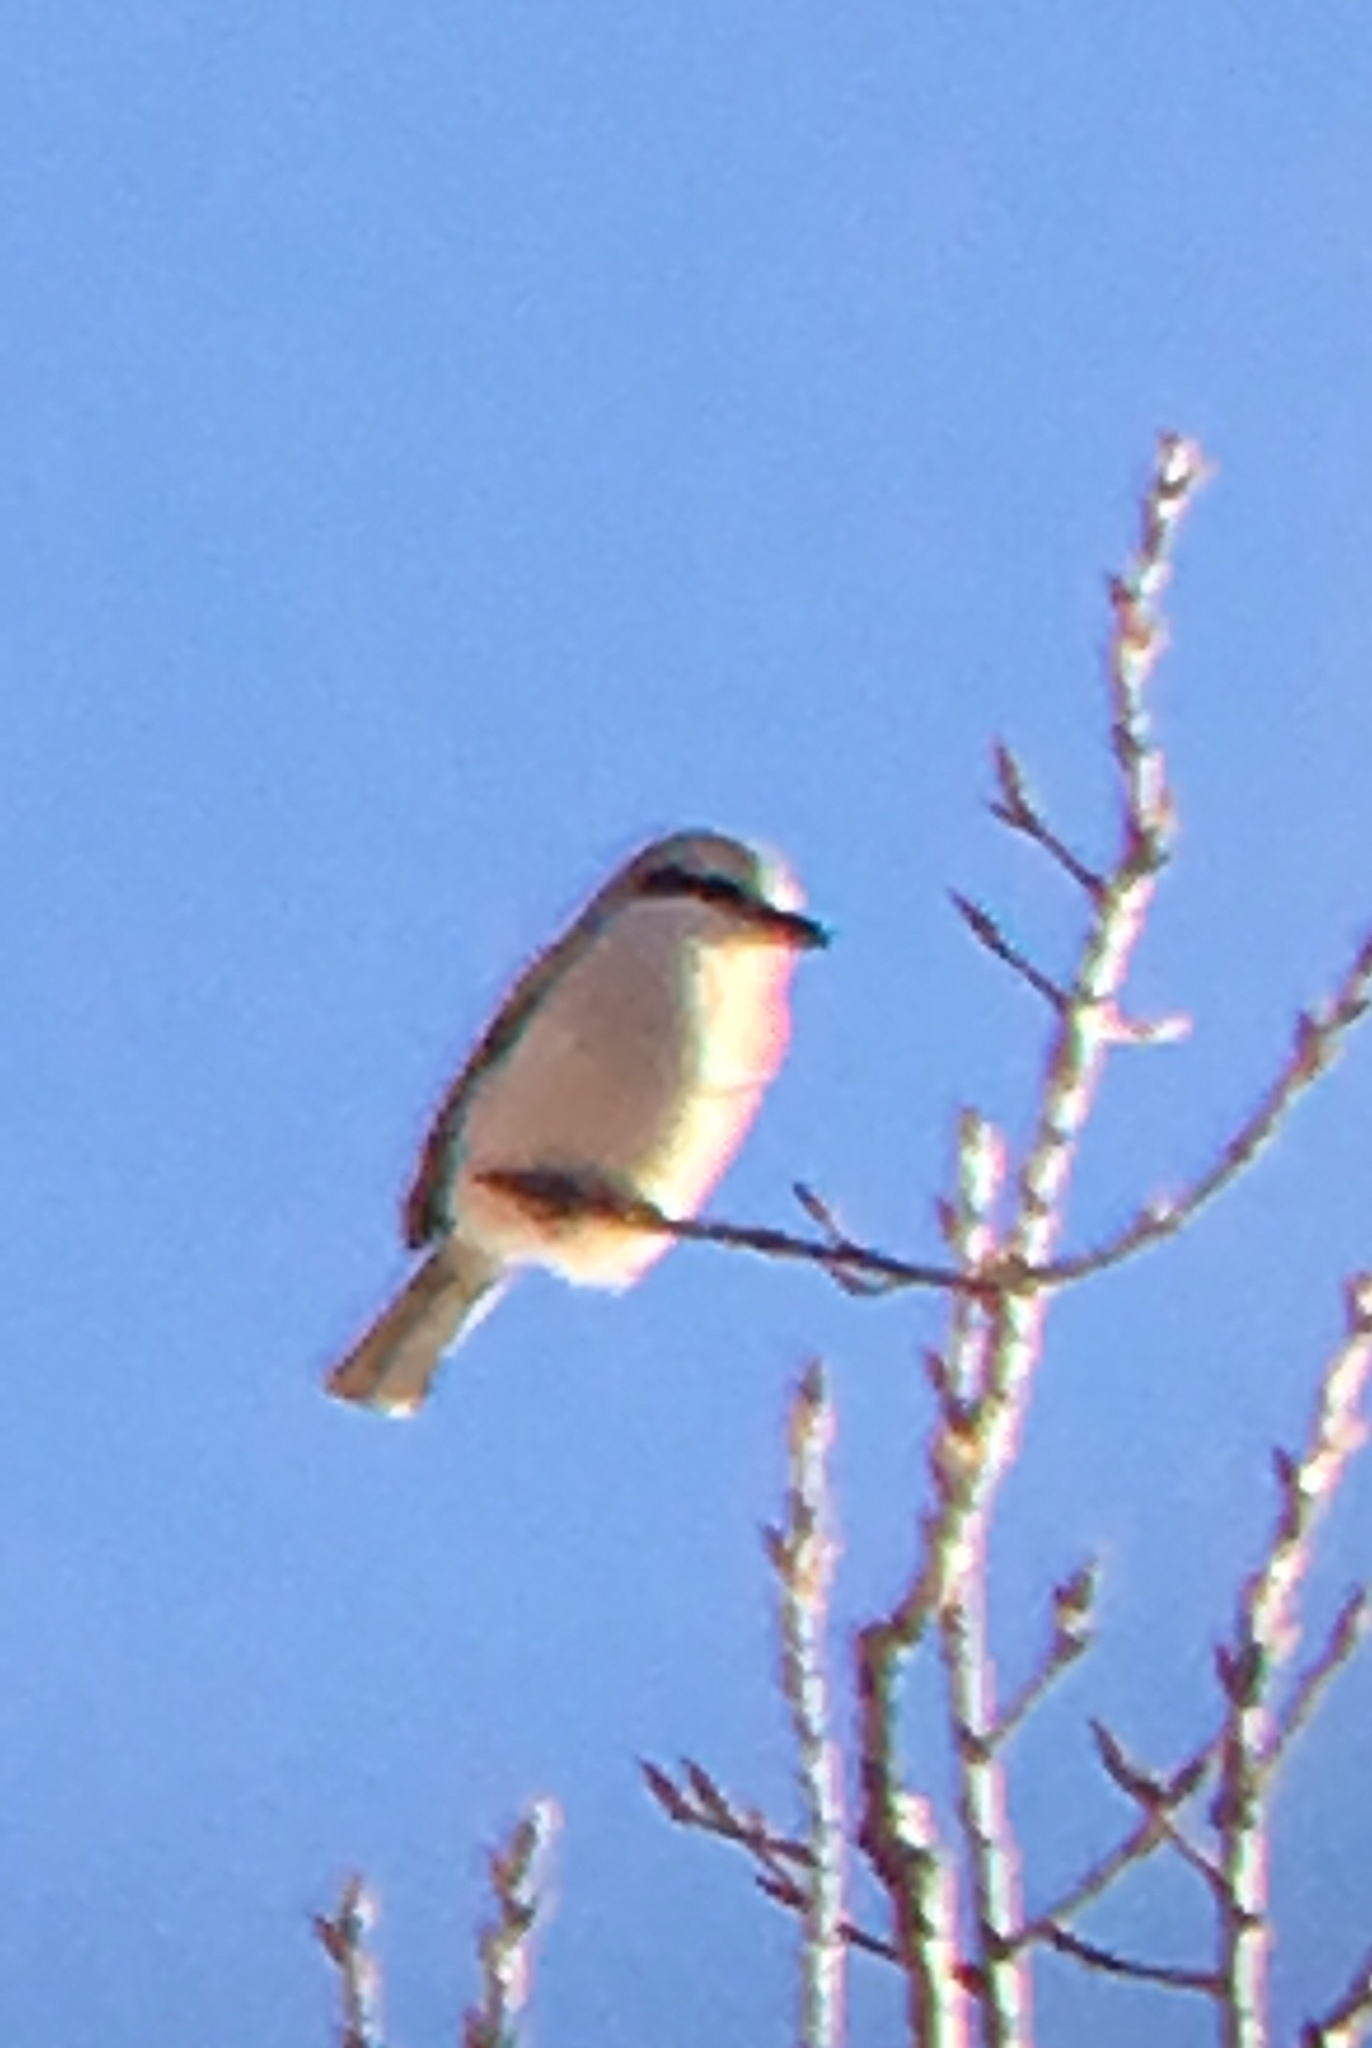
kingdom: Animalia
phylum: Chordata
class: Aves
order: Passeriformes
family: Laniidae
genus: Lanius
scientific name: Lanius borealis
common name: Northern shrike
